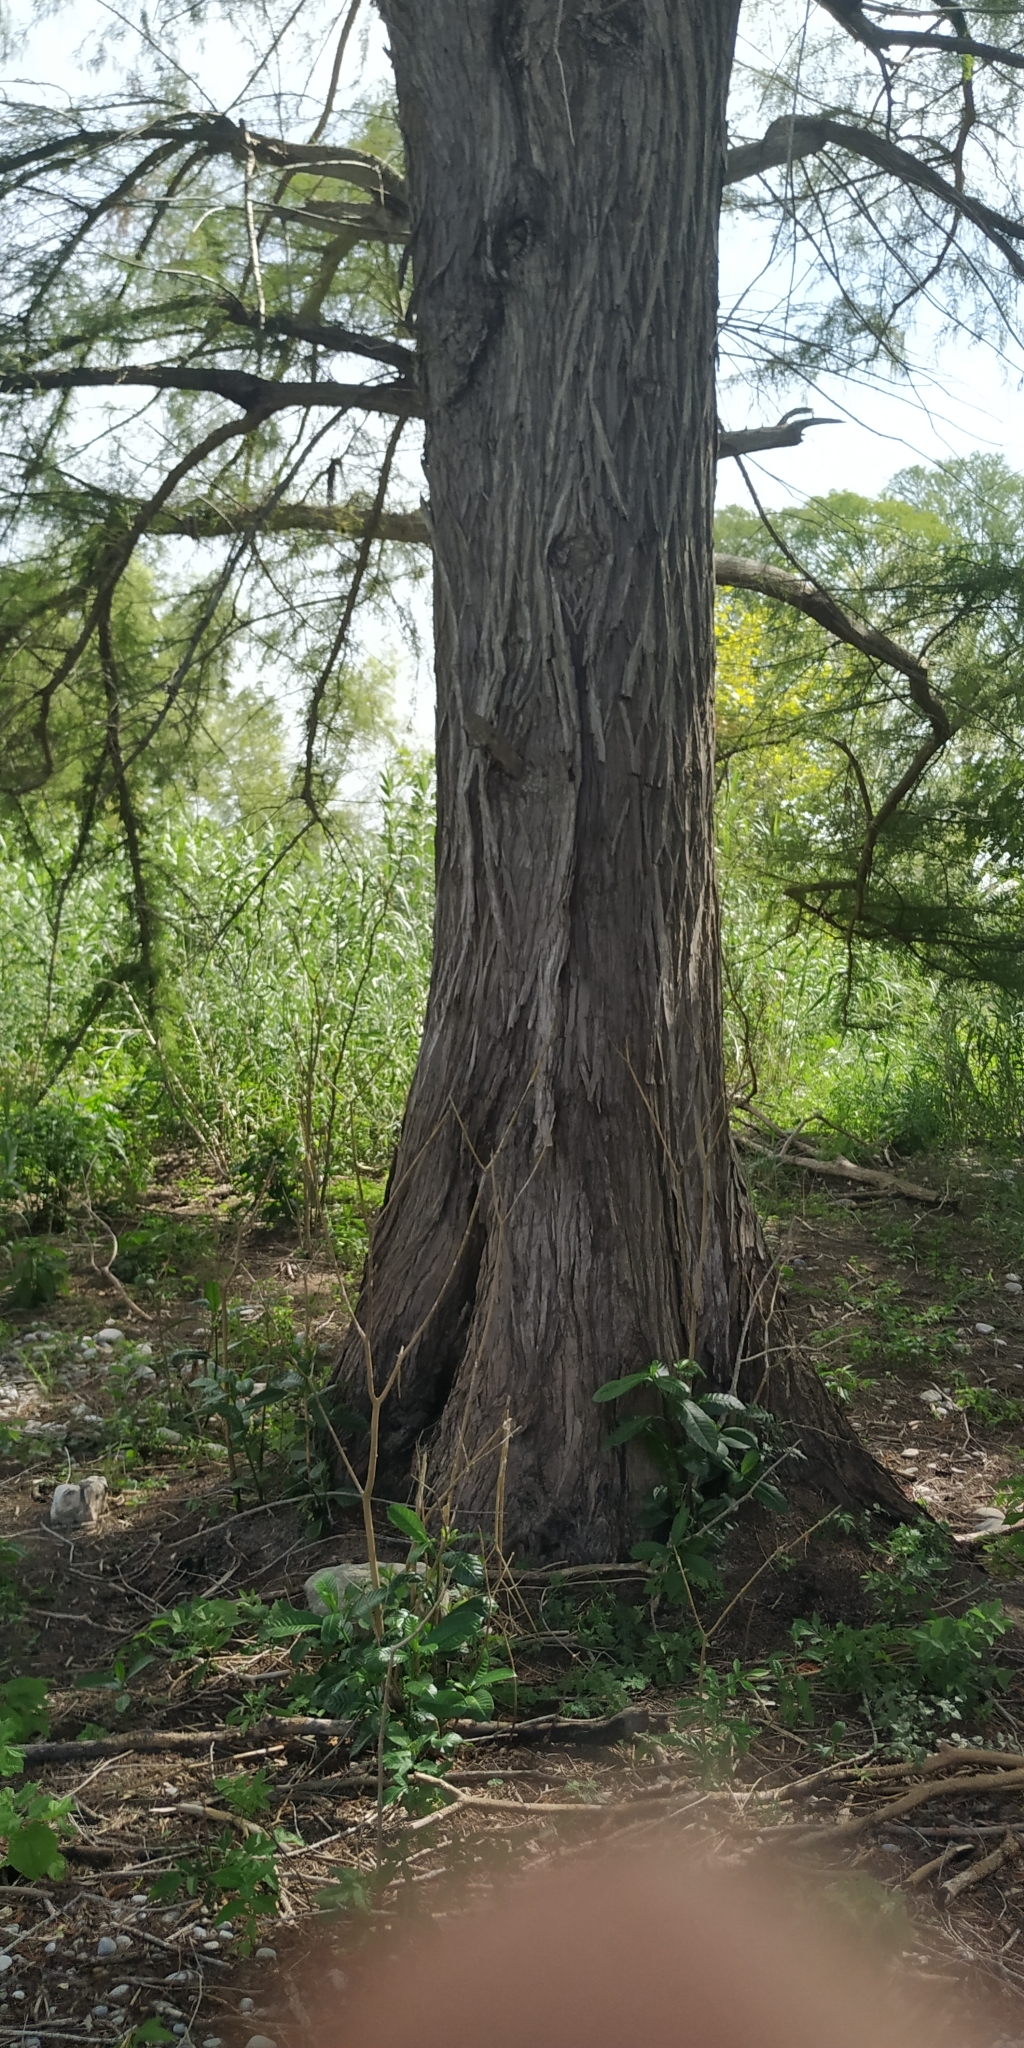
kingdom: Plantae
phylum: Tracheophyta
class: Pinopsida
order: Pinales
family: Cupressaceae
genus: Taxodium
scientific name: Taxodium mucronatum
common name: Montezume bald cypress
